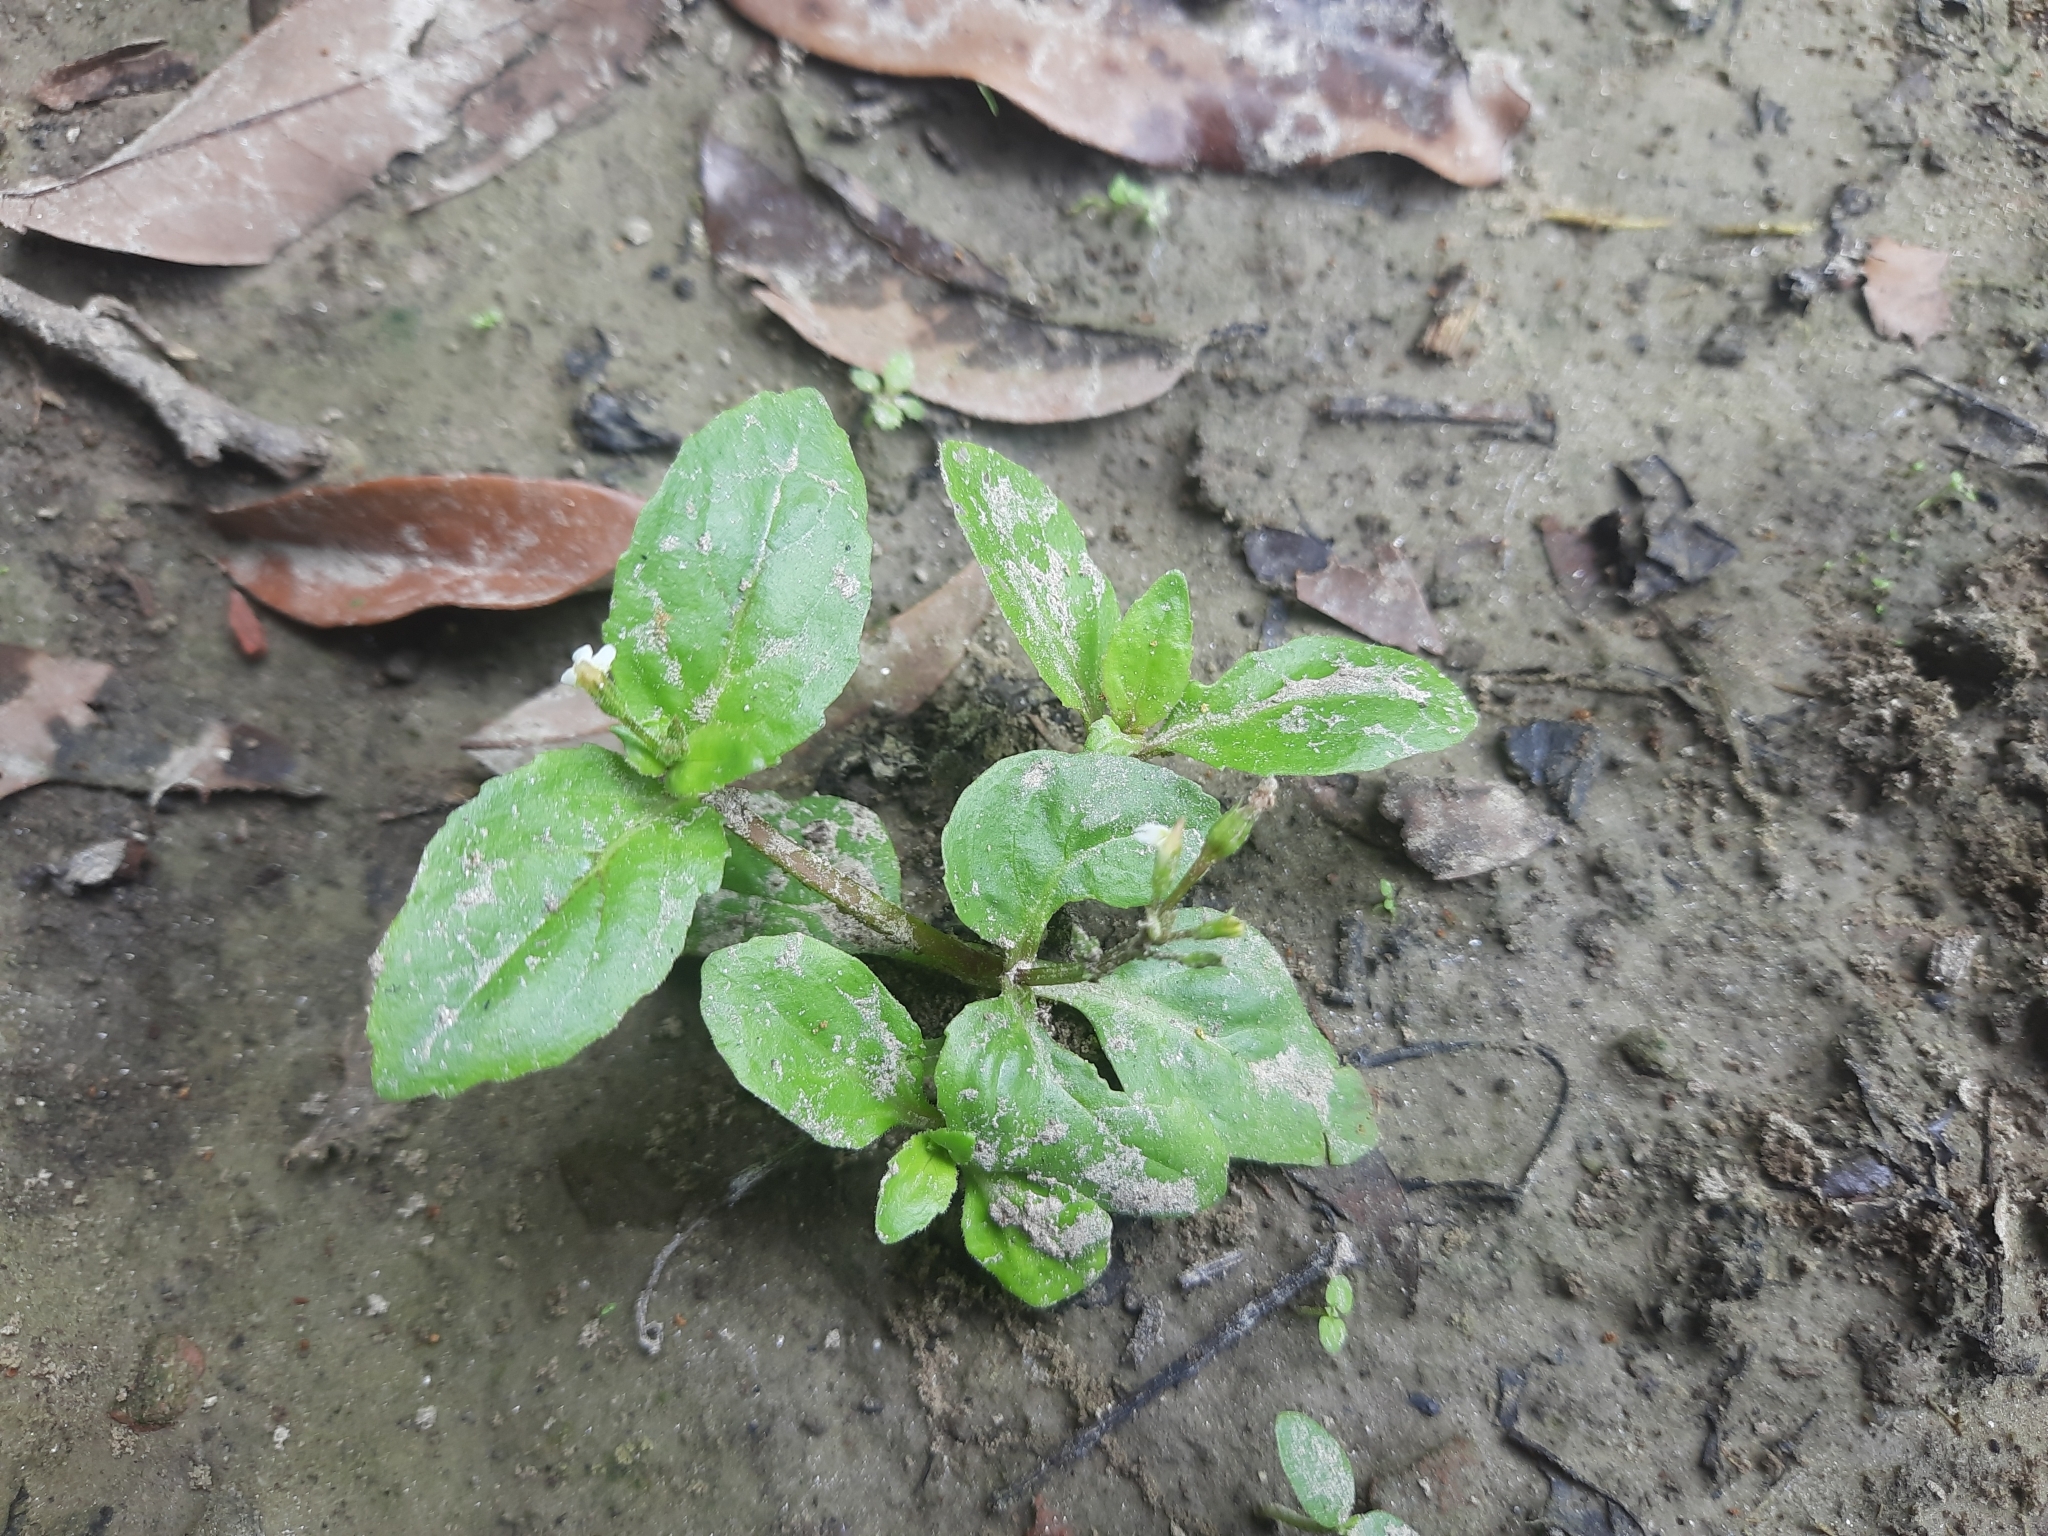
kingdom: Plantae
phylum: Tracheophyta
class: Magnoliopsida
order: Lamiales
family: Linderniaceae
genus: Yamazakia
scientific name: Yamazakia viscosa
